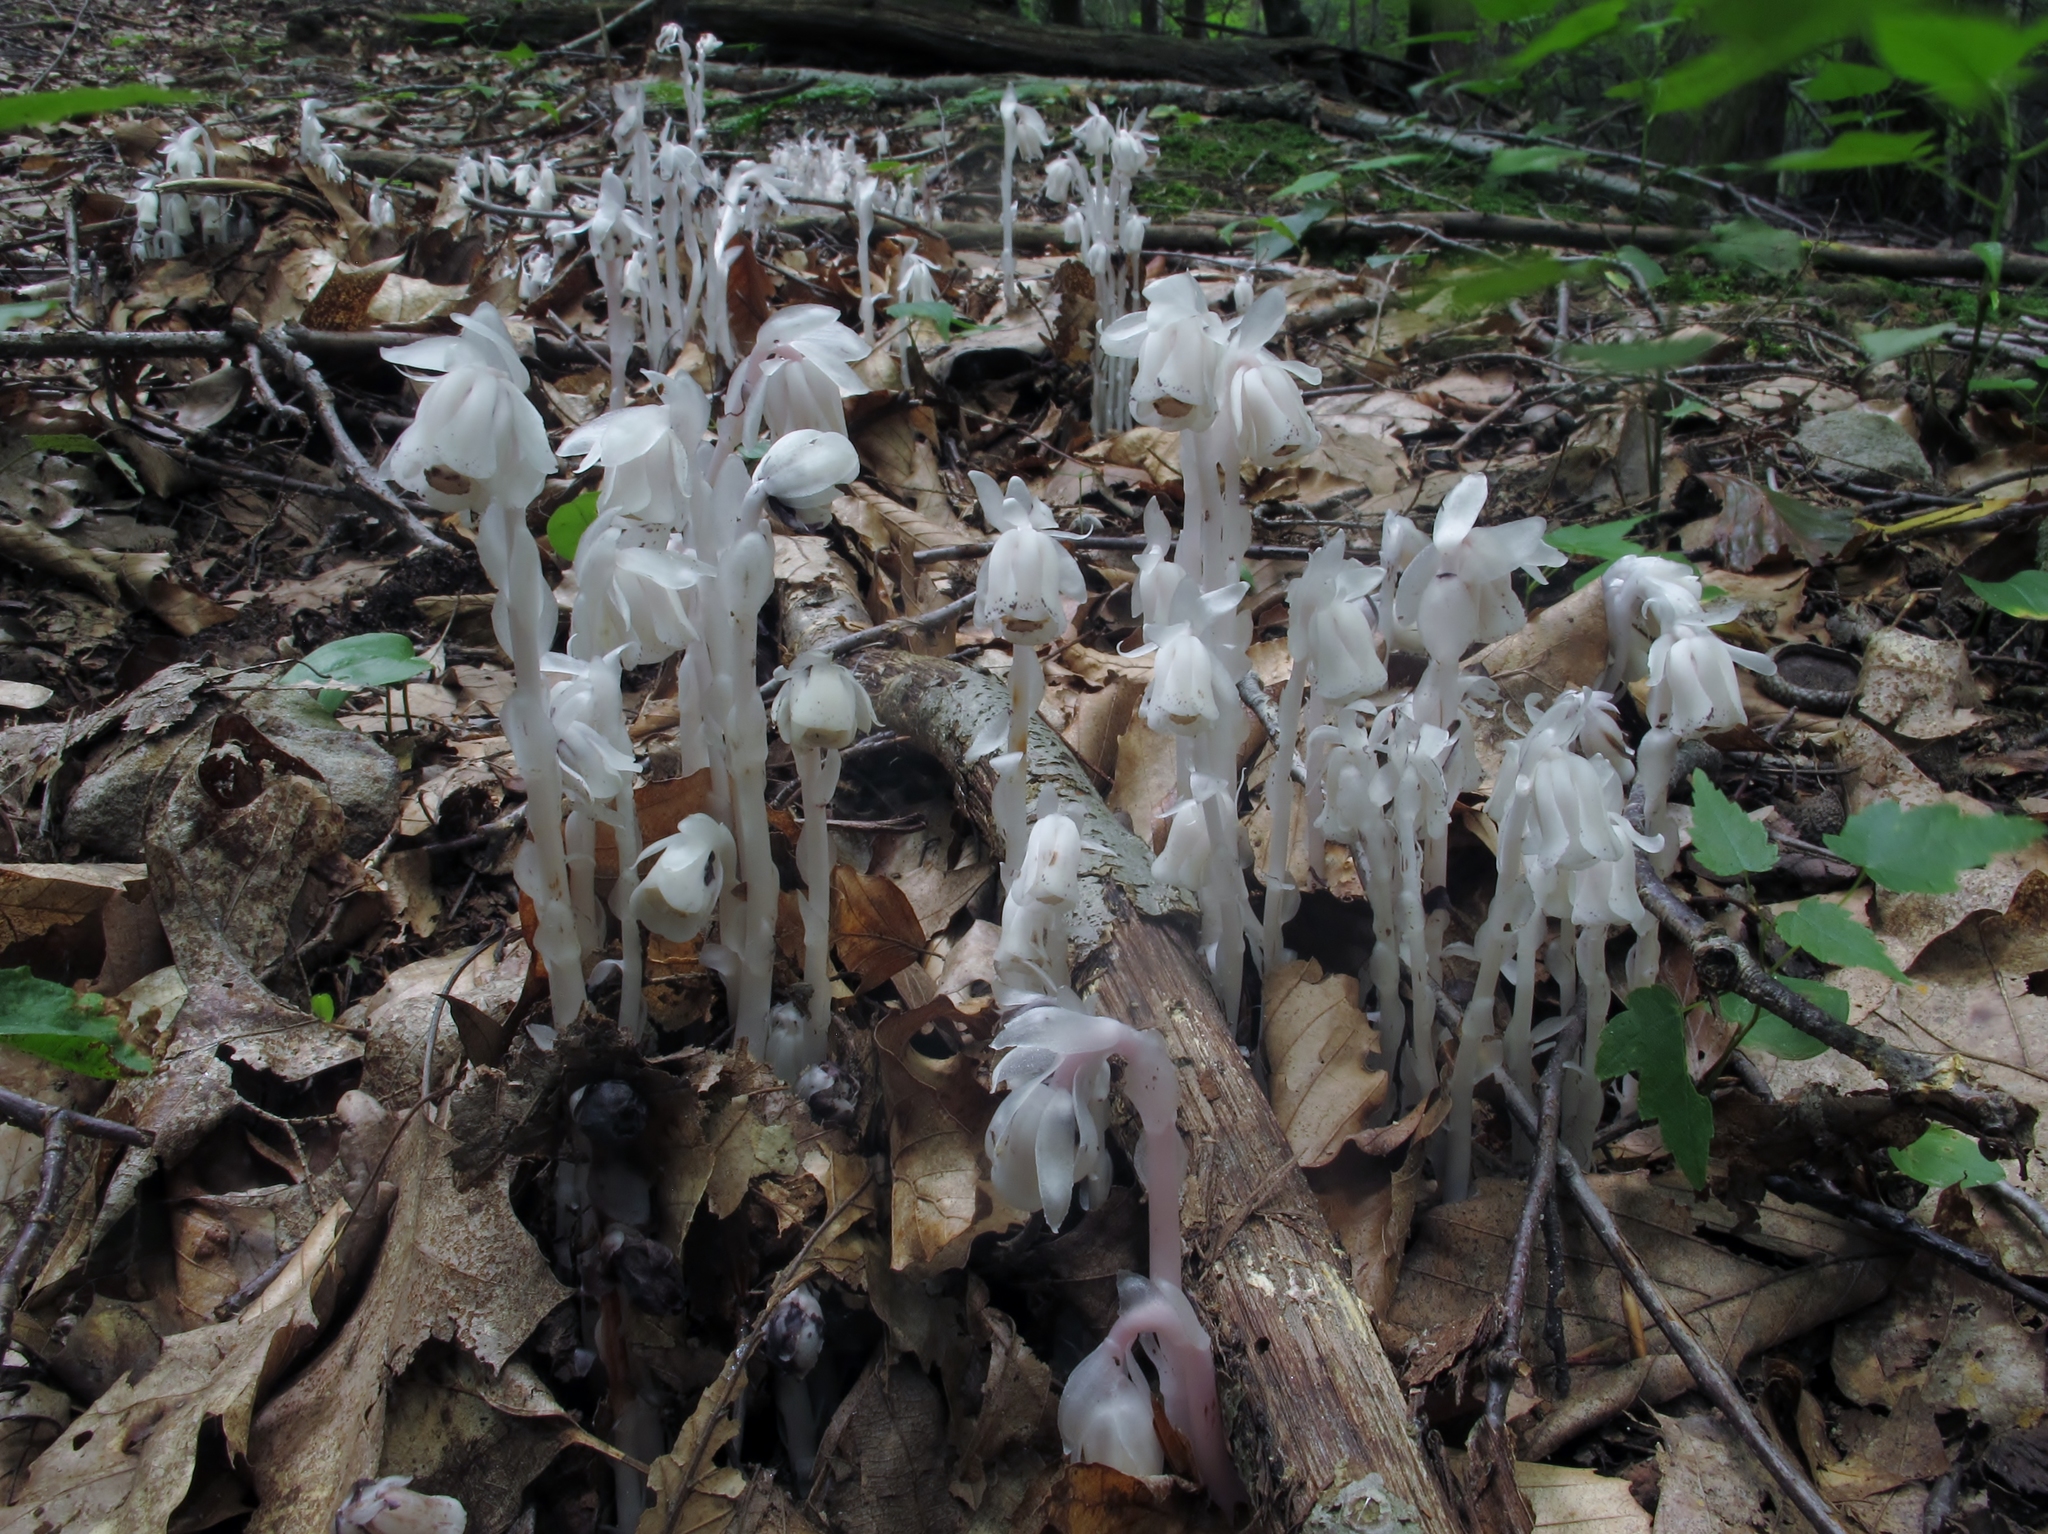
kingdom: Plantae
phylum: Tracheophyta
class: Magnoliopsida
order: Ericales
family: Ericaceae
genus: Monotropa
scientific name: Monotropa uniflora
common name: Convulsion root
